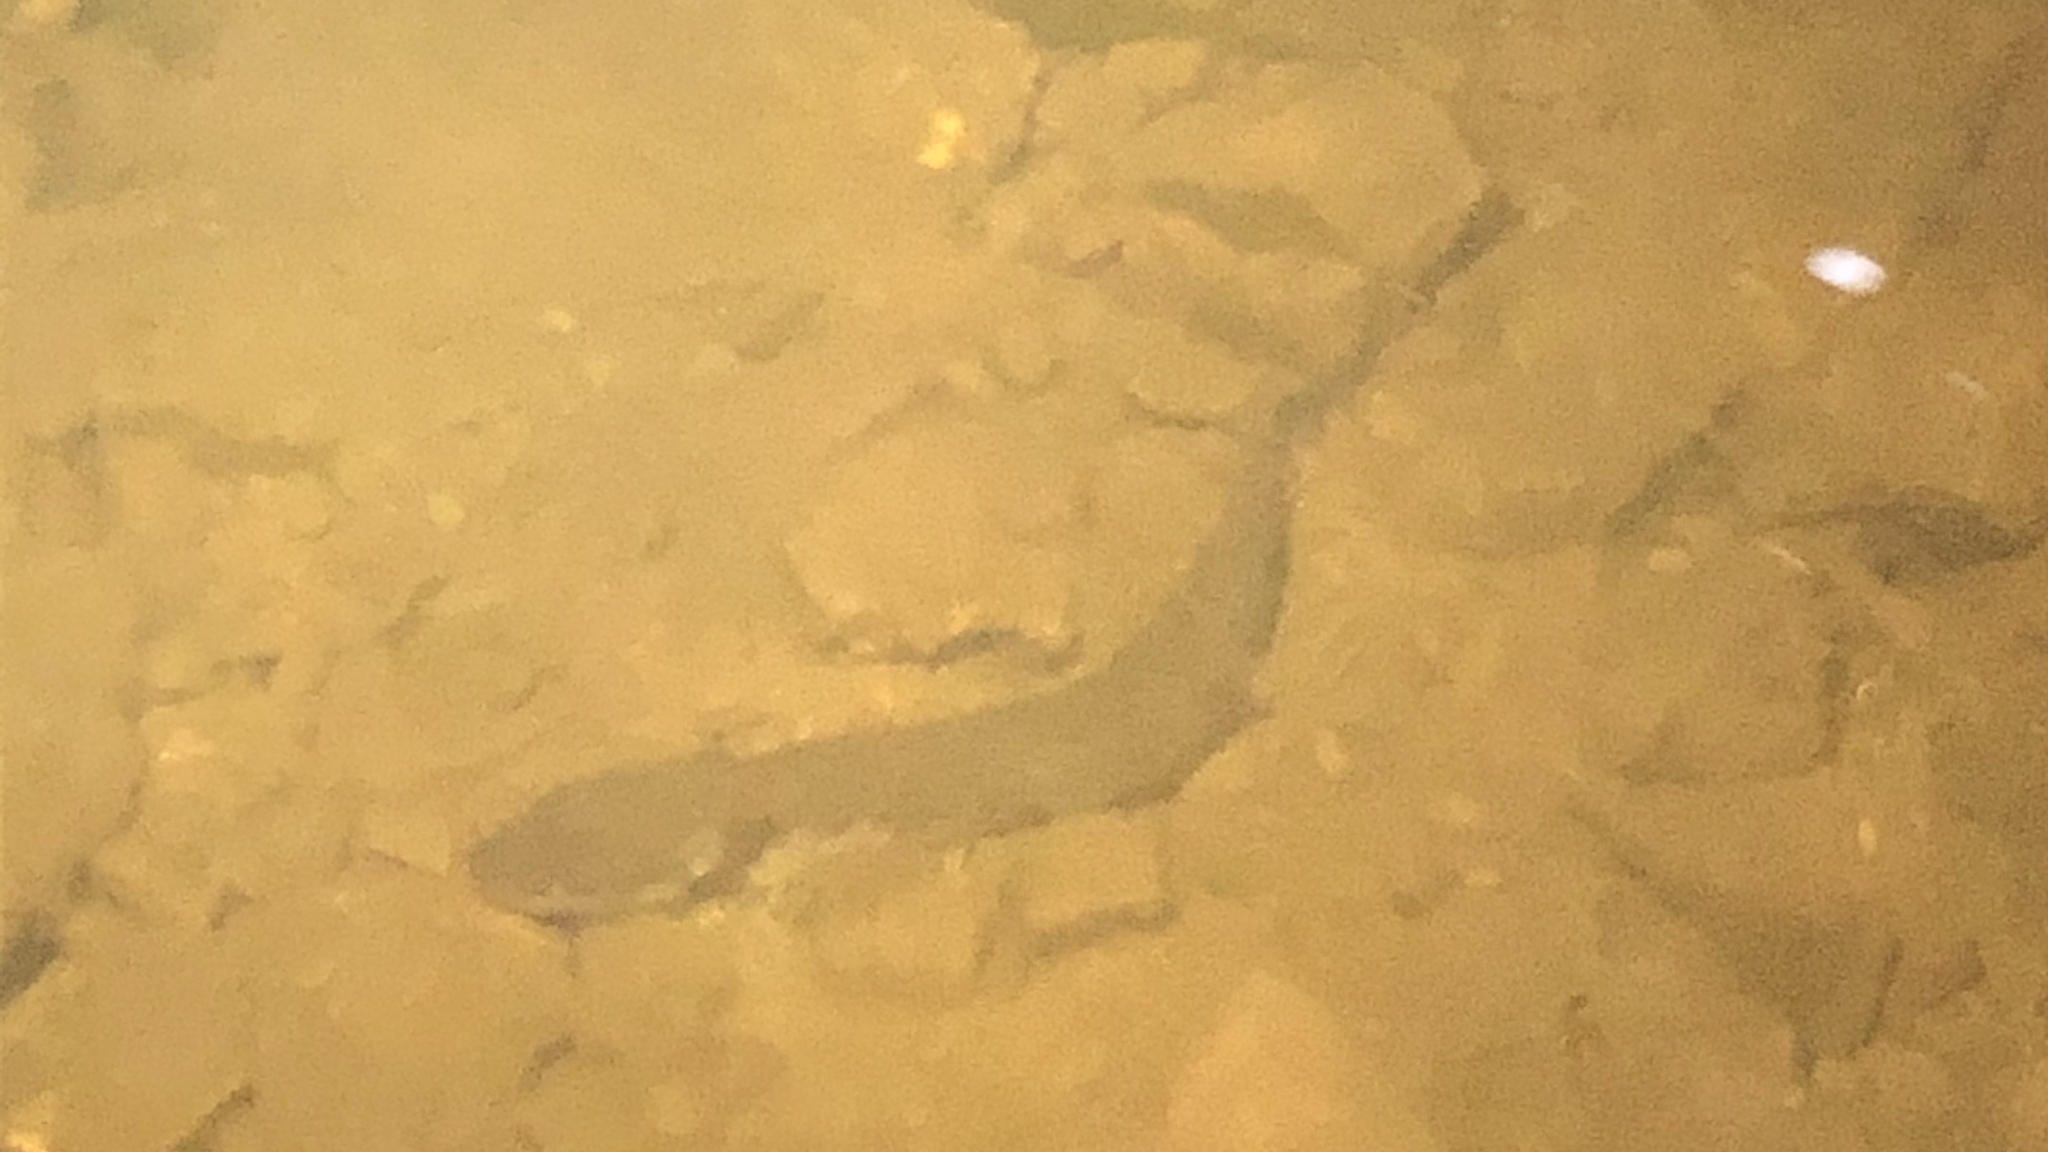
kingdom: Animalia
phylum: Chordata
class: Amphibia
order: Caudata
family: Proteidae
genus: Necturus
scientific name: Necturus maculosus
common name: Mudpuppy
